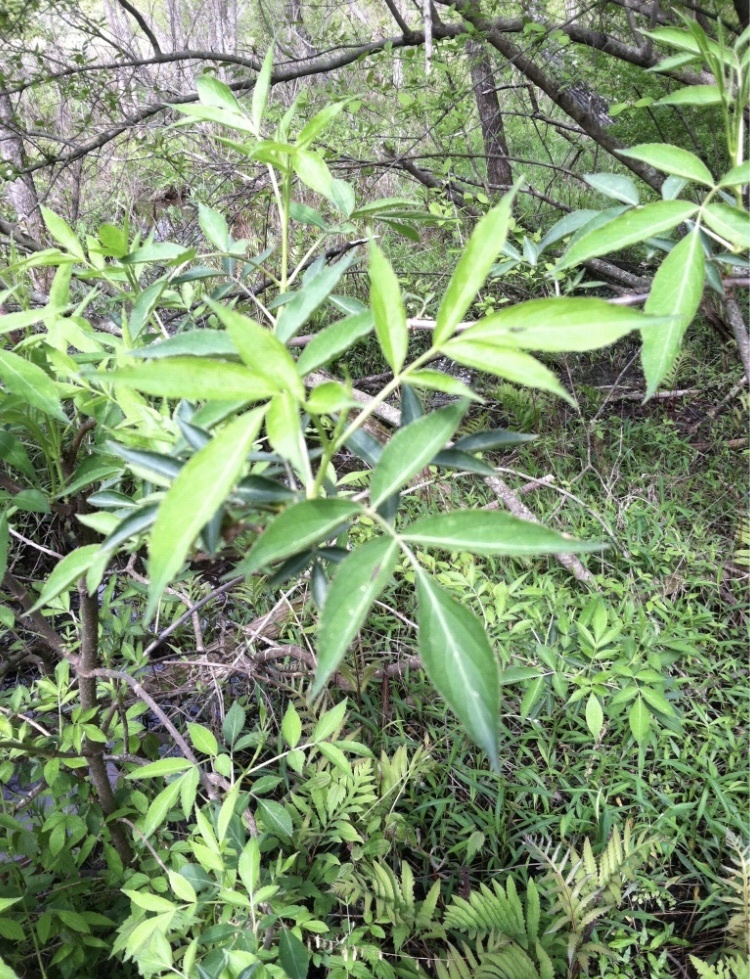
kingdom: Plantae
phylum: Tracheophyta
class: Magnoliopsida
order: Dipsacales
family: Viburnaceae
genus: Sambucus
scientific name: Sambucus canadensis
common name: American elder
